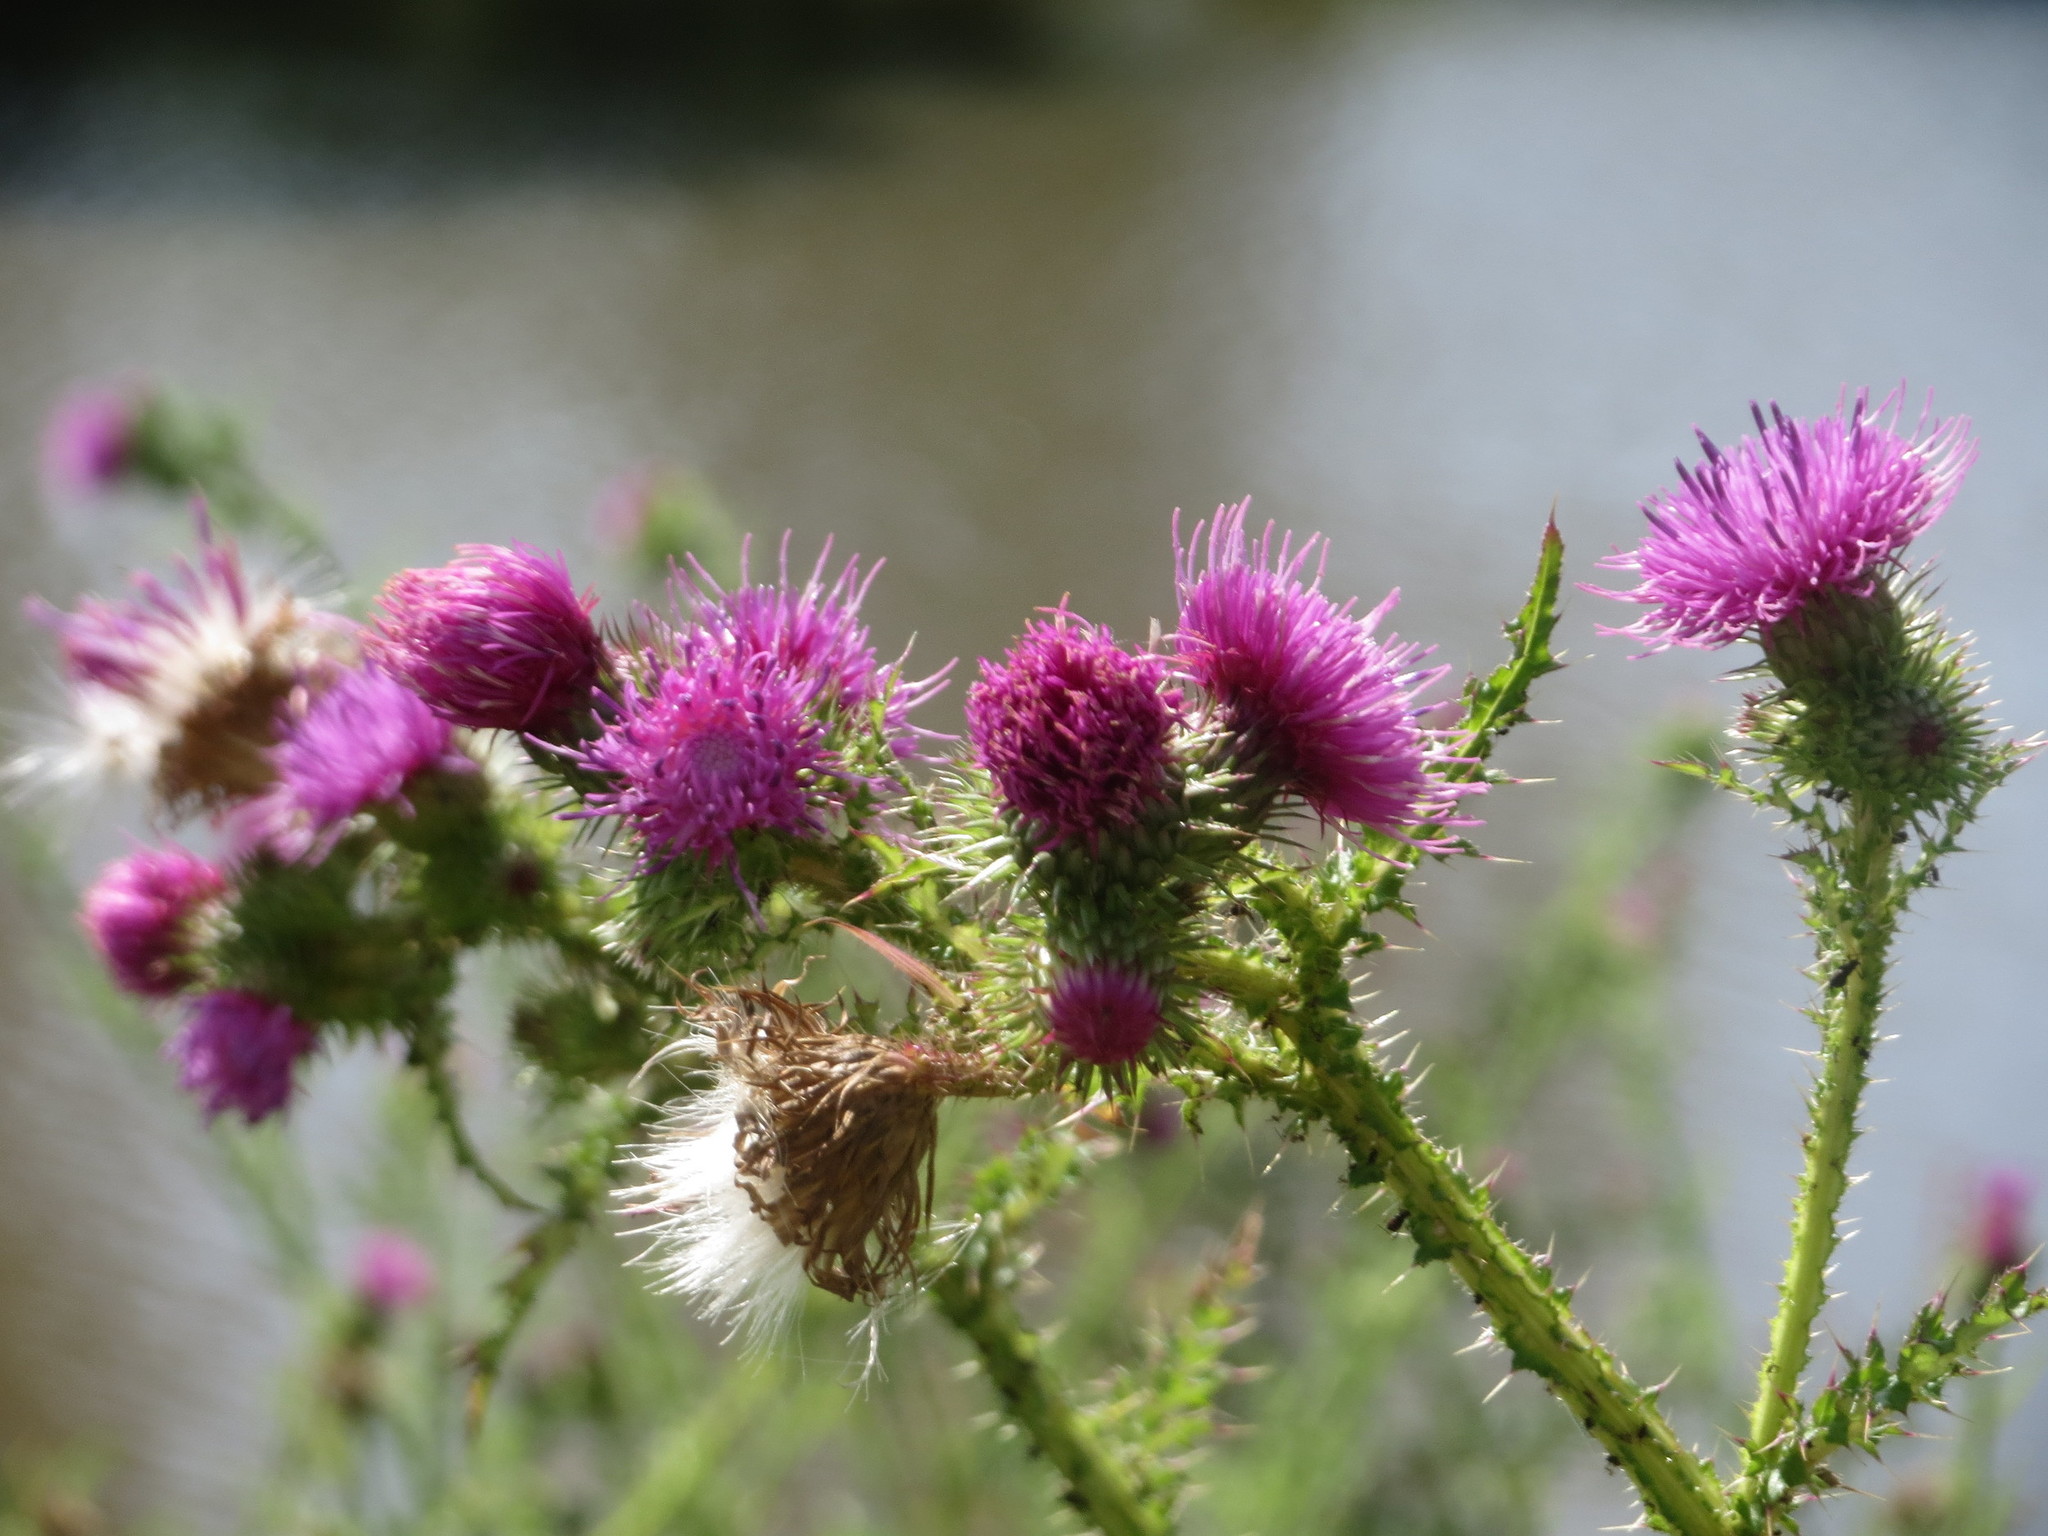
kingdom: Plantae
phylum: Tracheophyta
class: Magnoliopsida
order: Asterales
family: Asteraceae
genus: Carduus
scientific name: Carduus acanthoides
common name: Plumeless thistle
